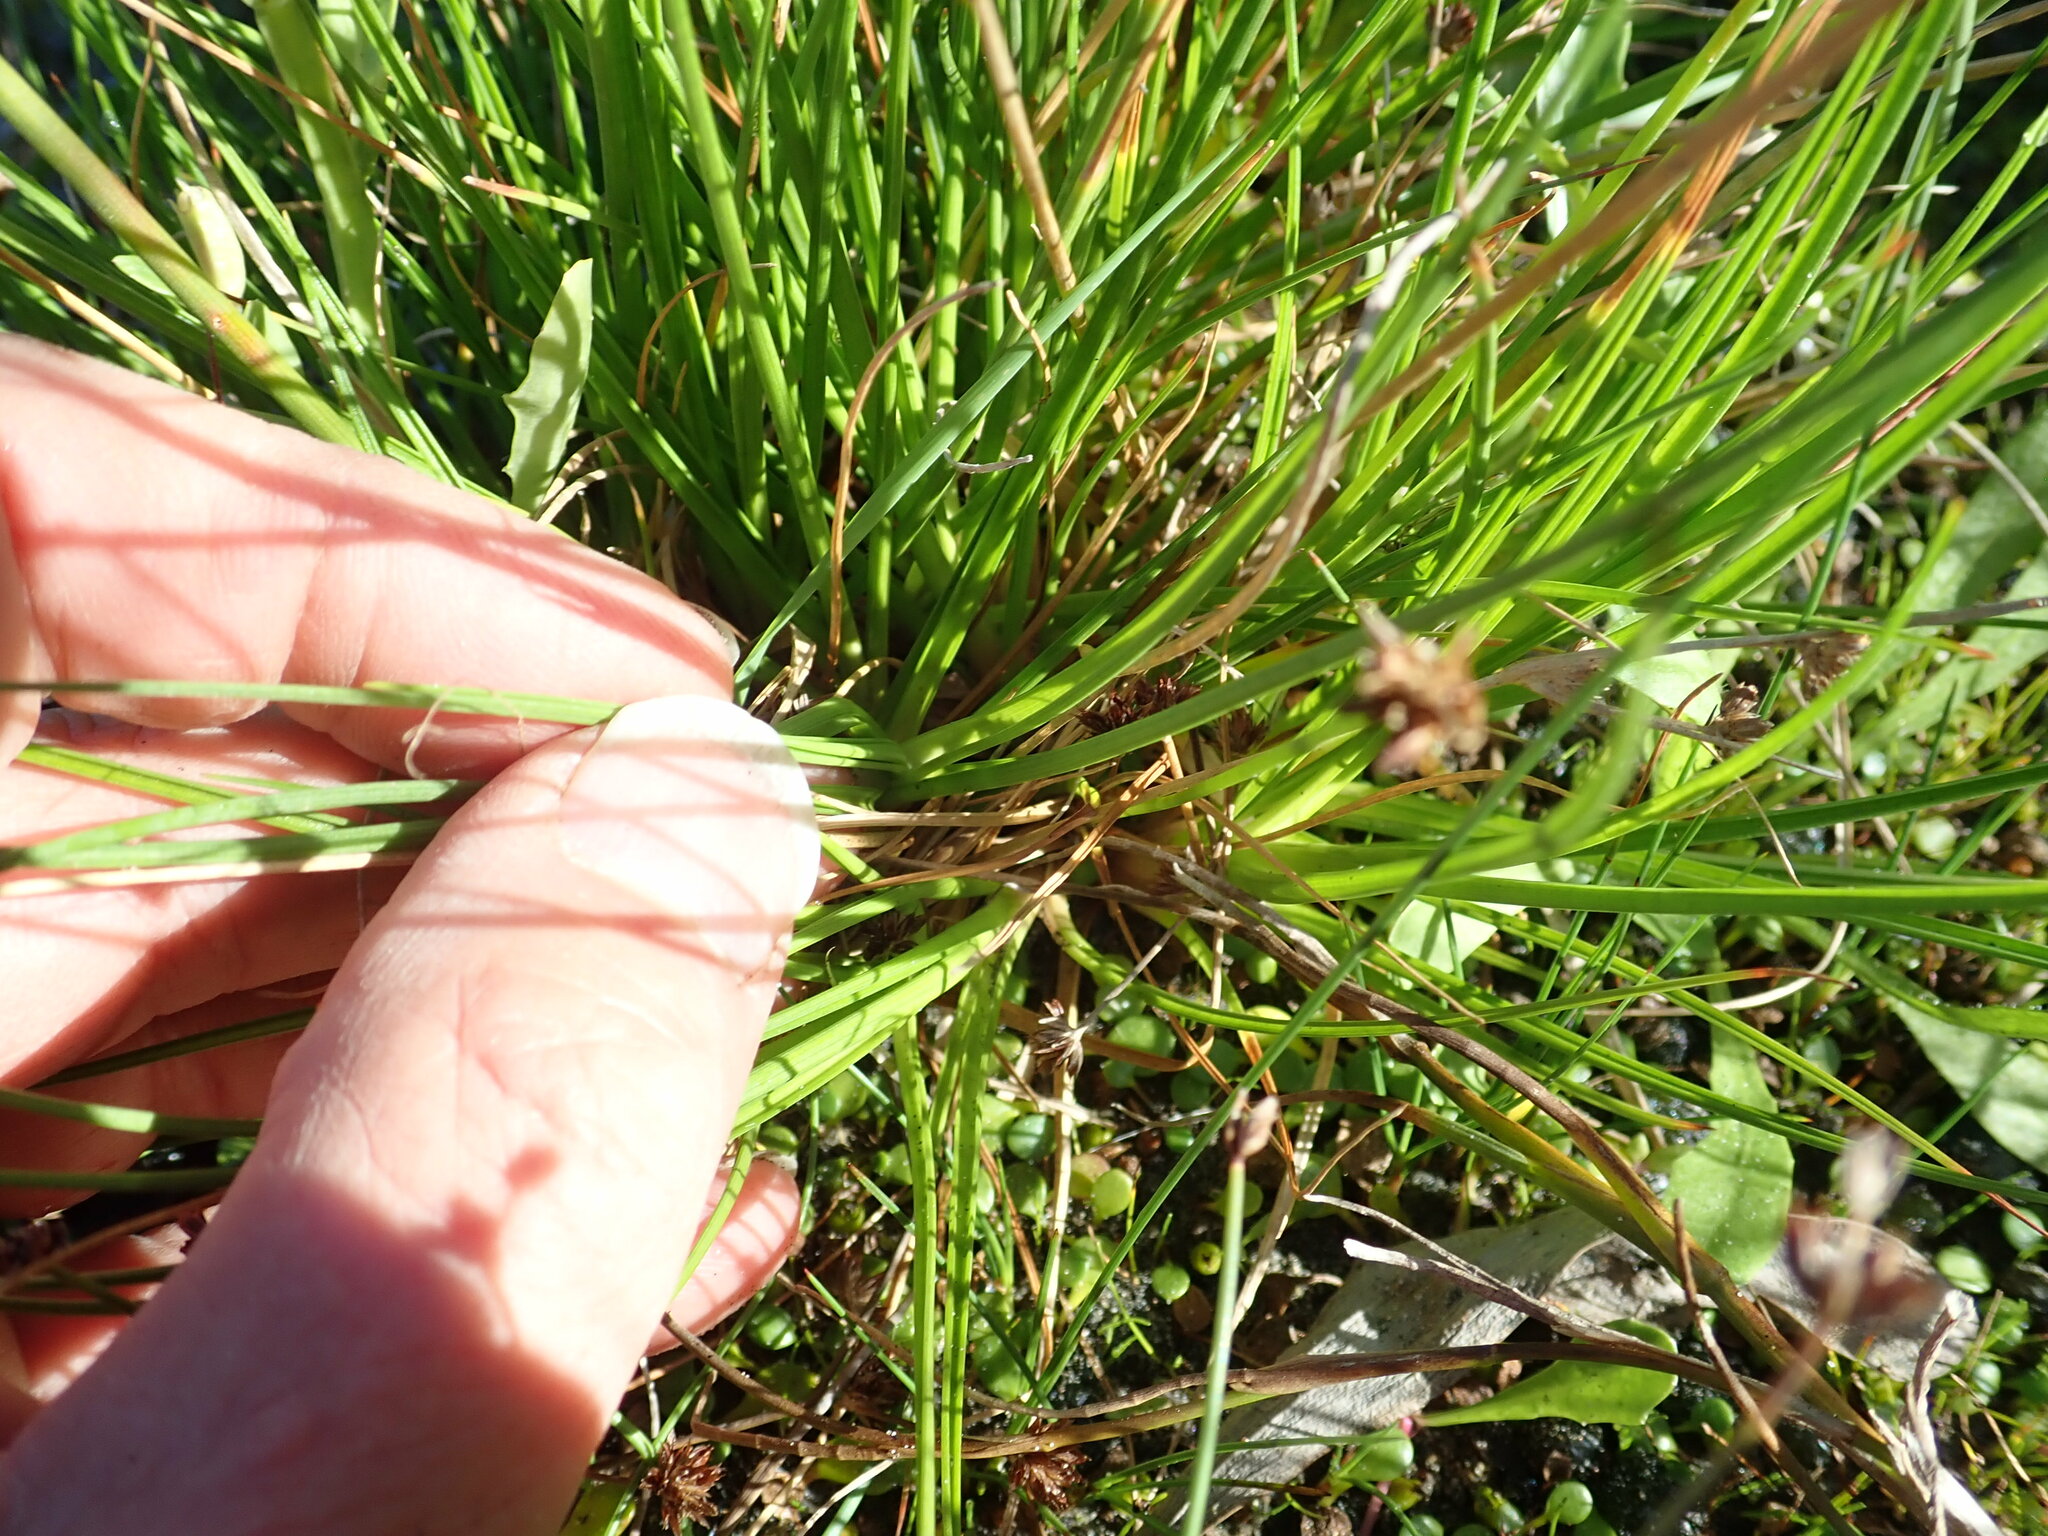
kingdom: Plantae
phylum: Tracheophyta
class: Liliopsida
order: Poales
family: Juncaceae
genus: Juncus
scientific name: Juncus caespiticius
